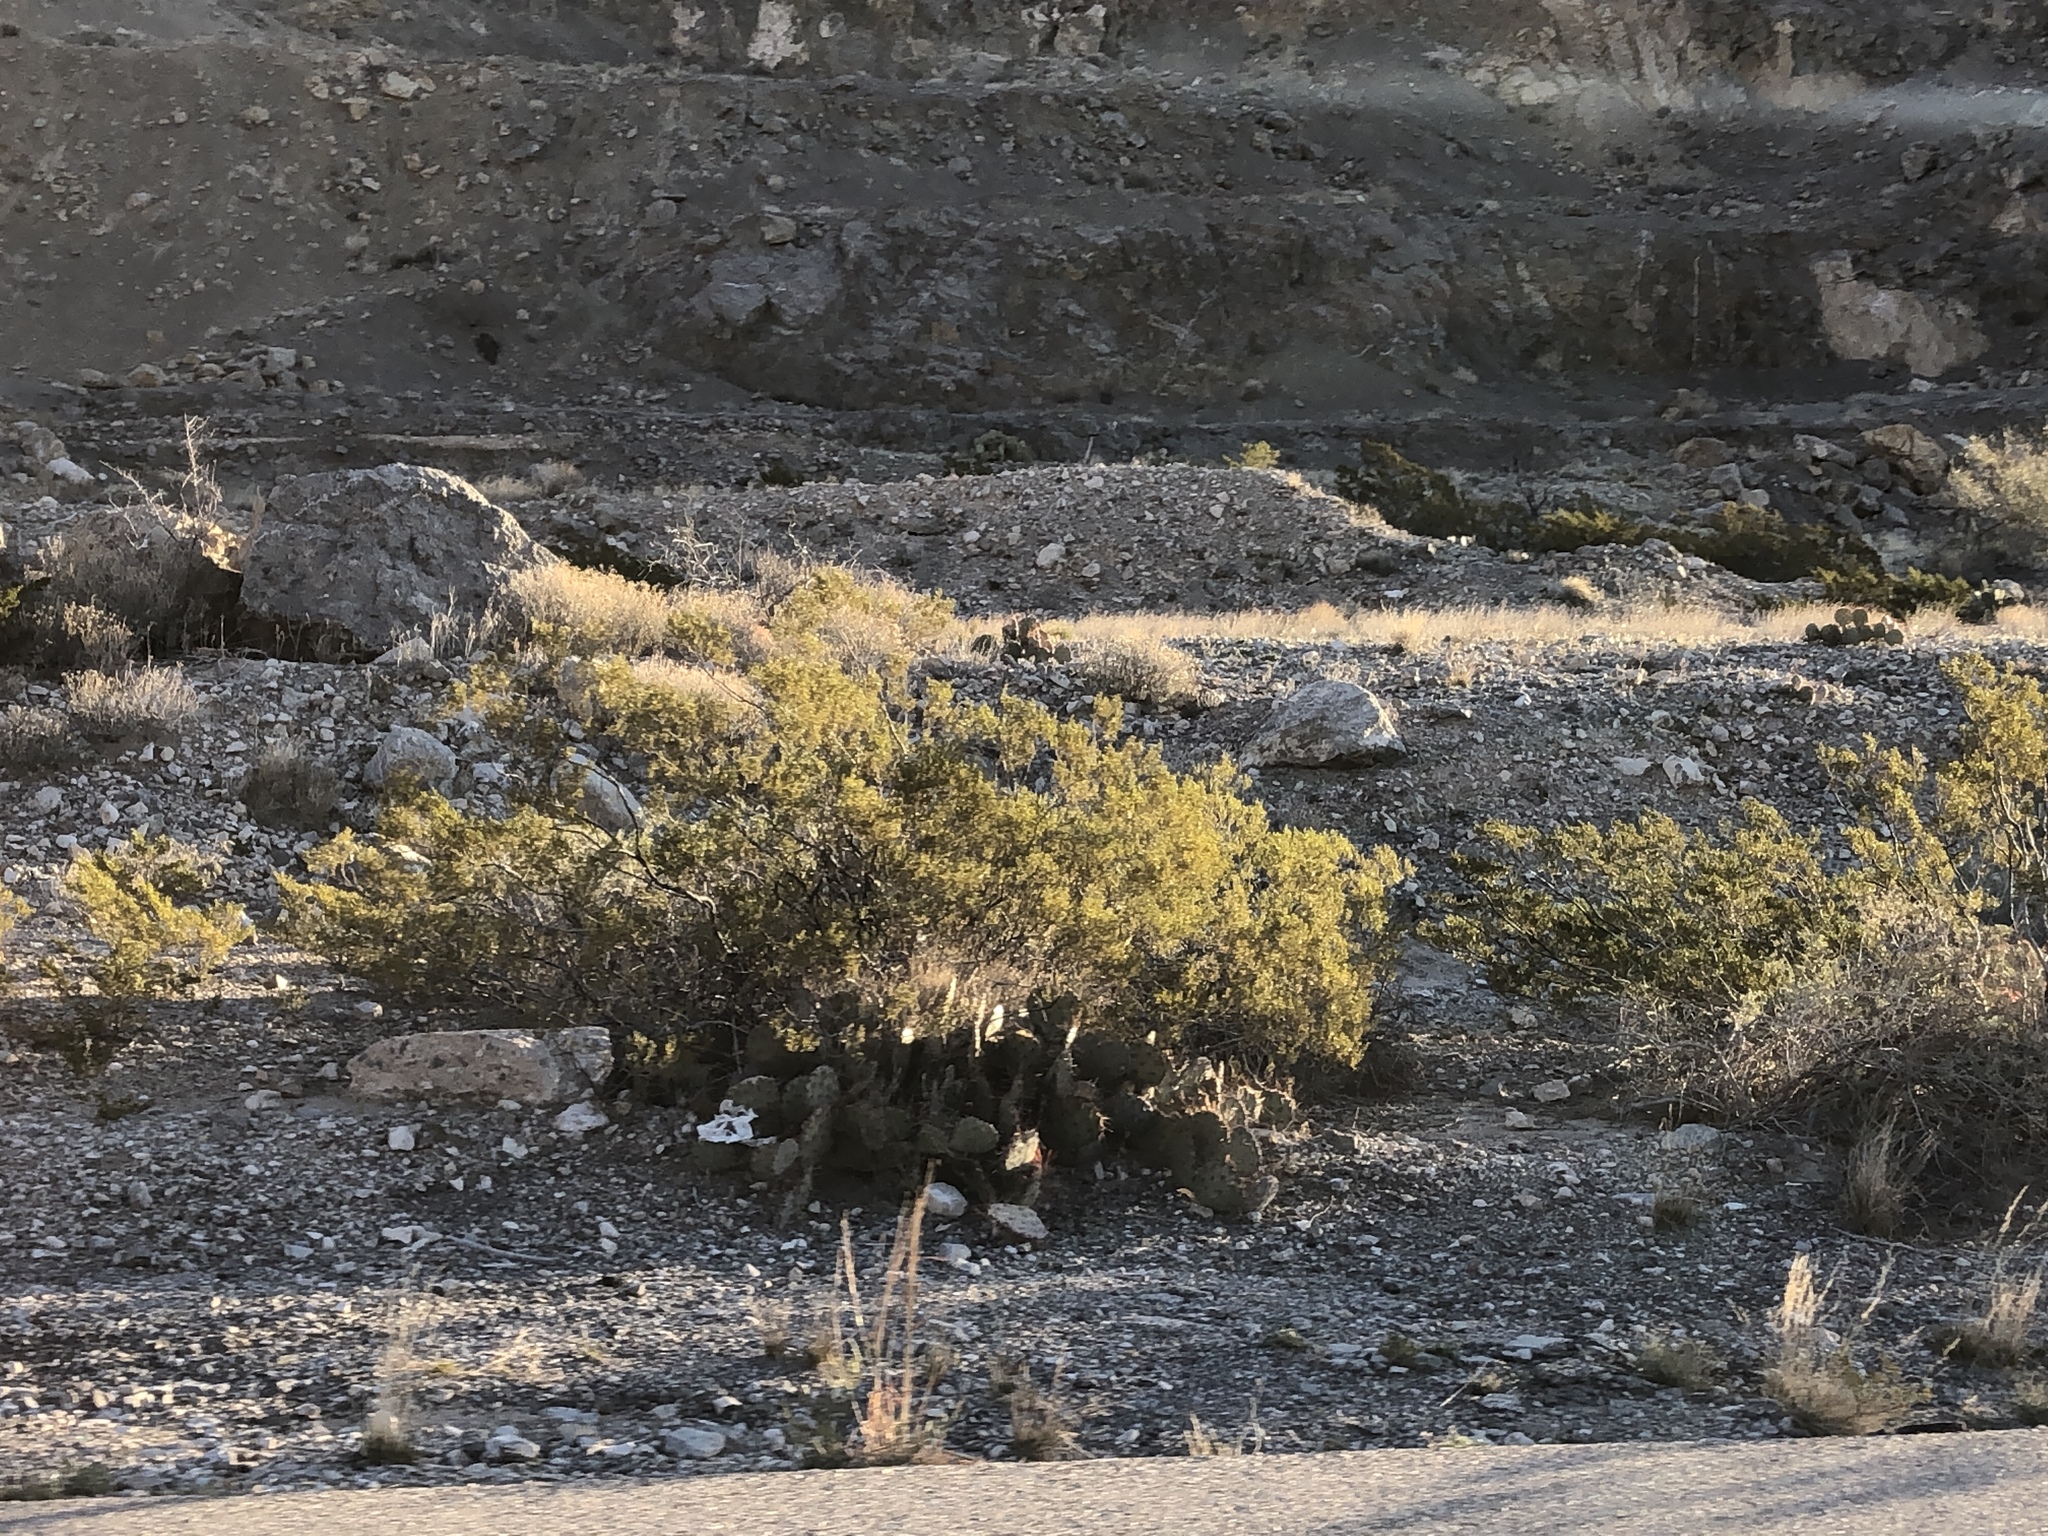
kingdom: Plantae
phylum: Tracheophyta
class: Magnoliopsida
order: Zygophyllales
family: Zygophyllaceae
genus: Larrea
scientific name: Larrea tridentata
